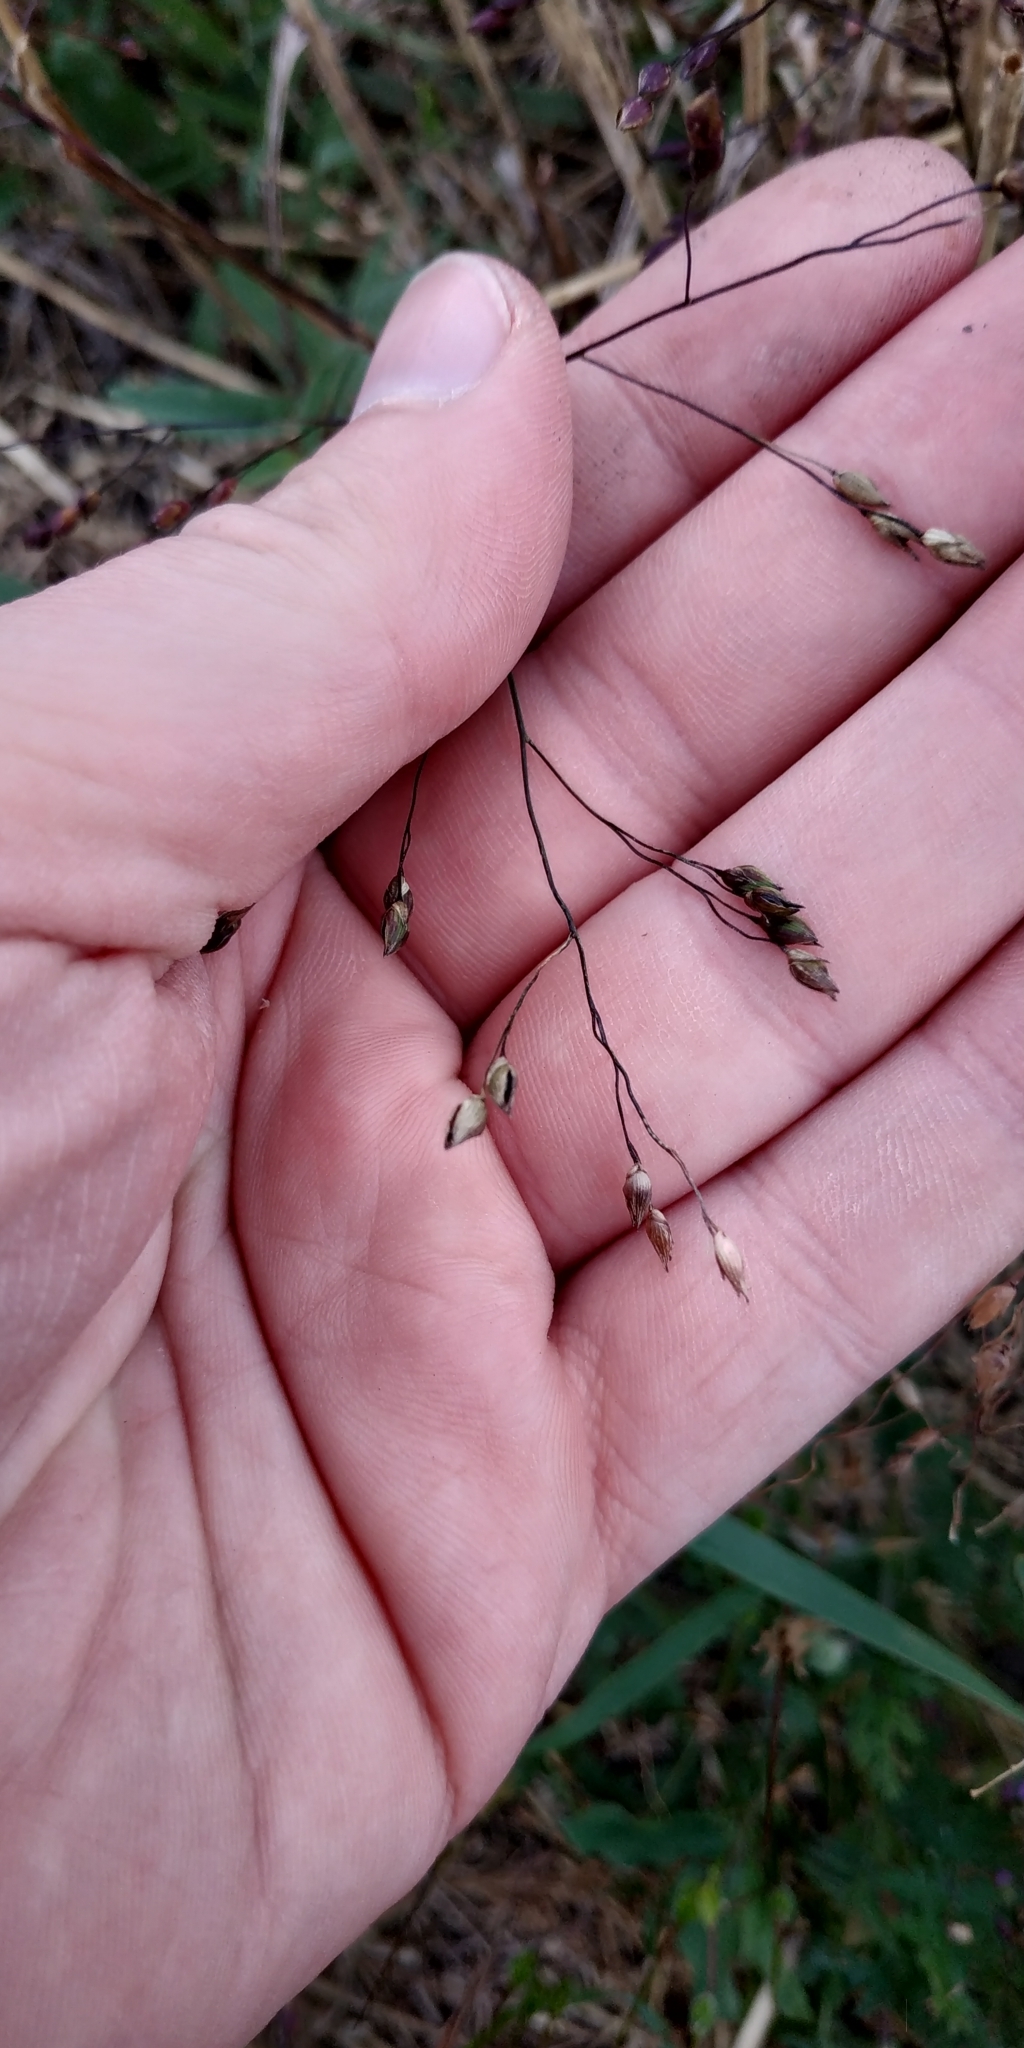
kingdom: Plantae
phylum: Tracheophyta
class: Liliopsida
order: Poales
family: Poaceae
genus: Panicum
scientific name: Panicum miliaceum
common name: Common millet
